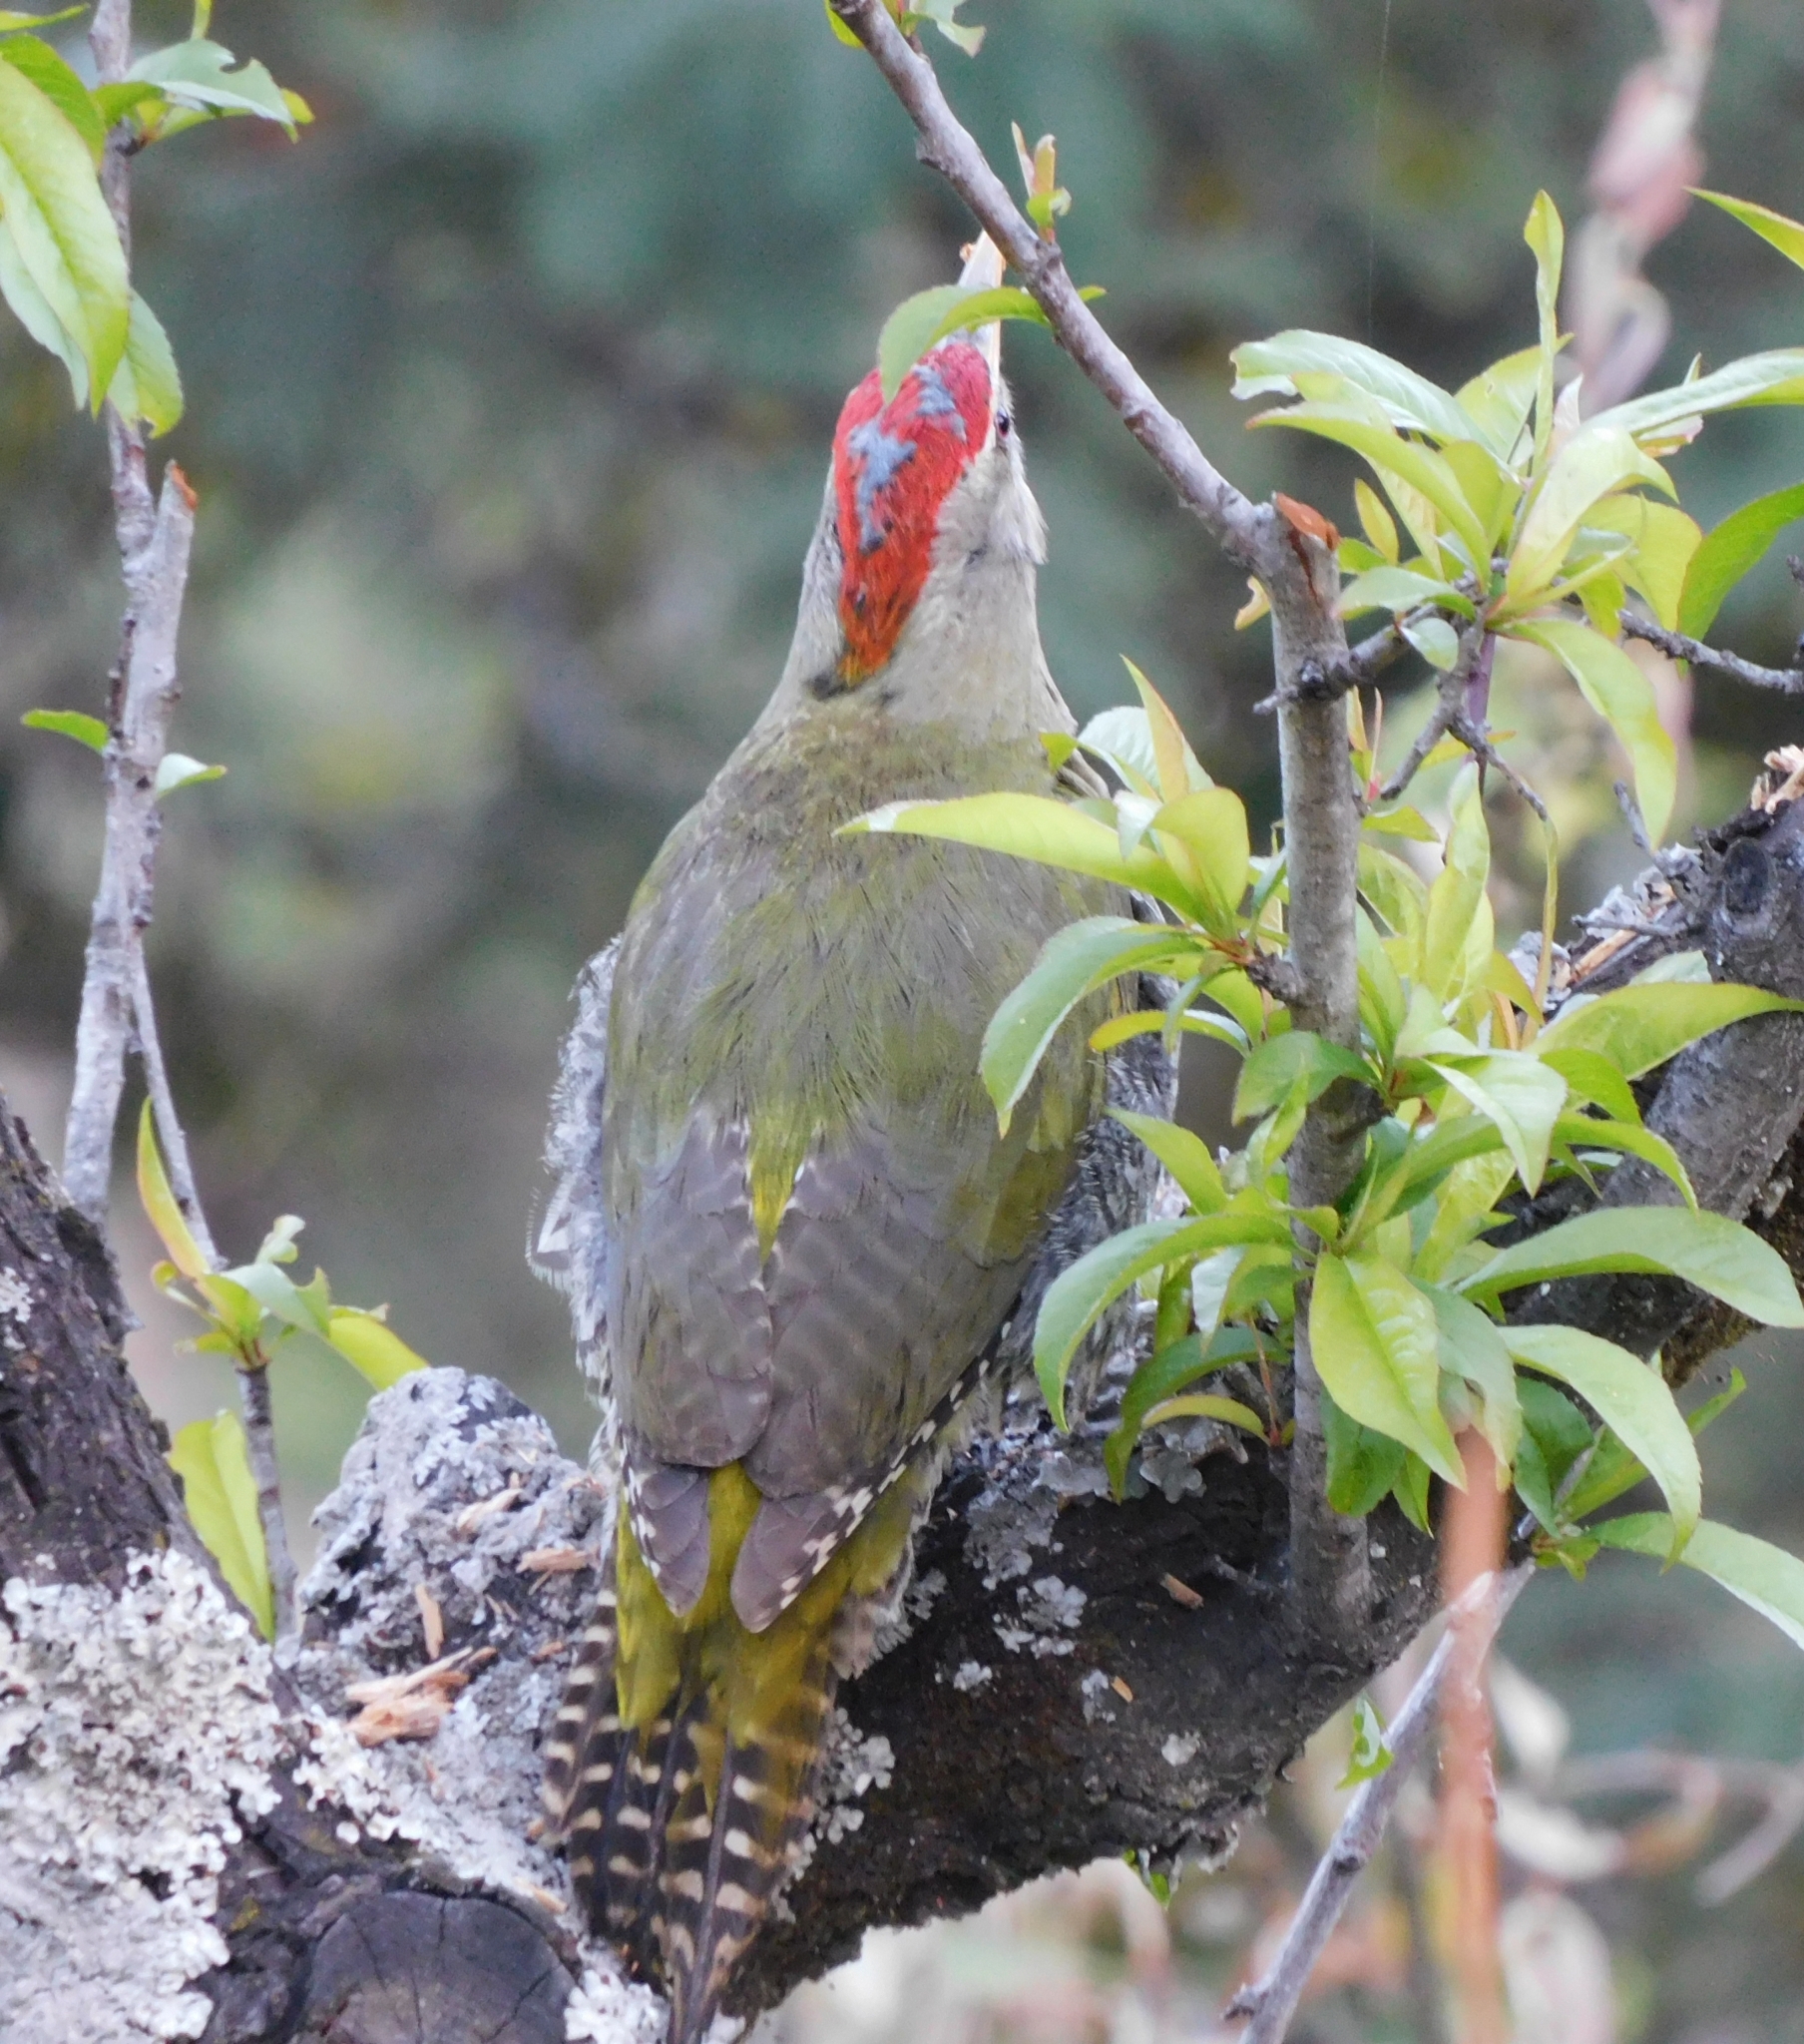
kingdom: Animalia
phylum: Chordata
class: Aves
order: Piciformes
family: Picidae
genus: Picus
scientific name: Picus squamatus
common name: Scaly-bellied woodpecker
